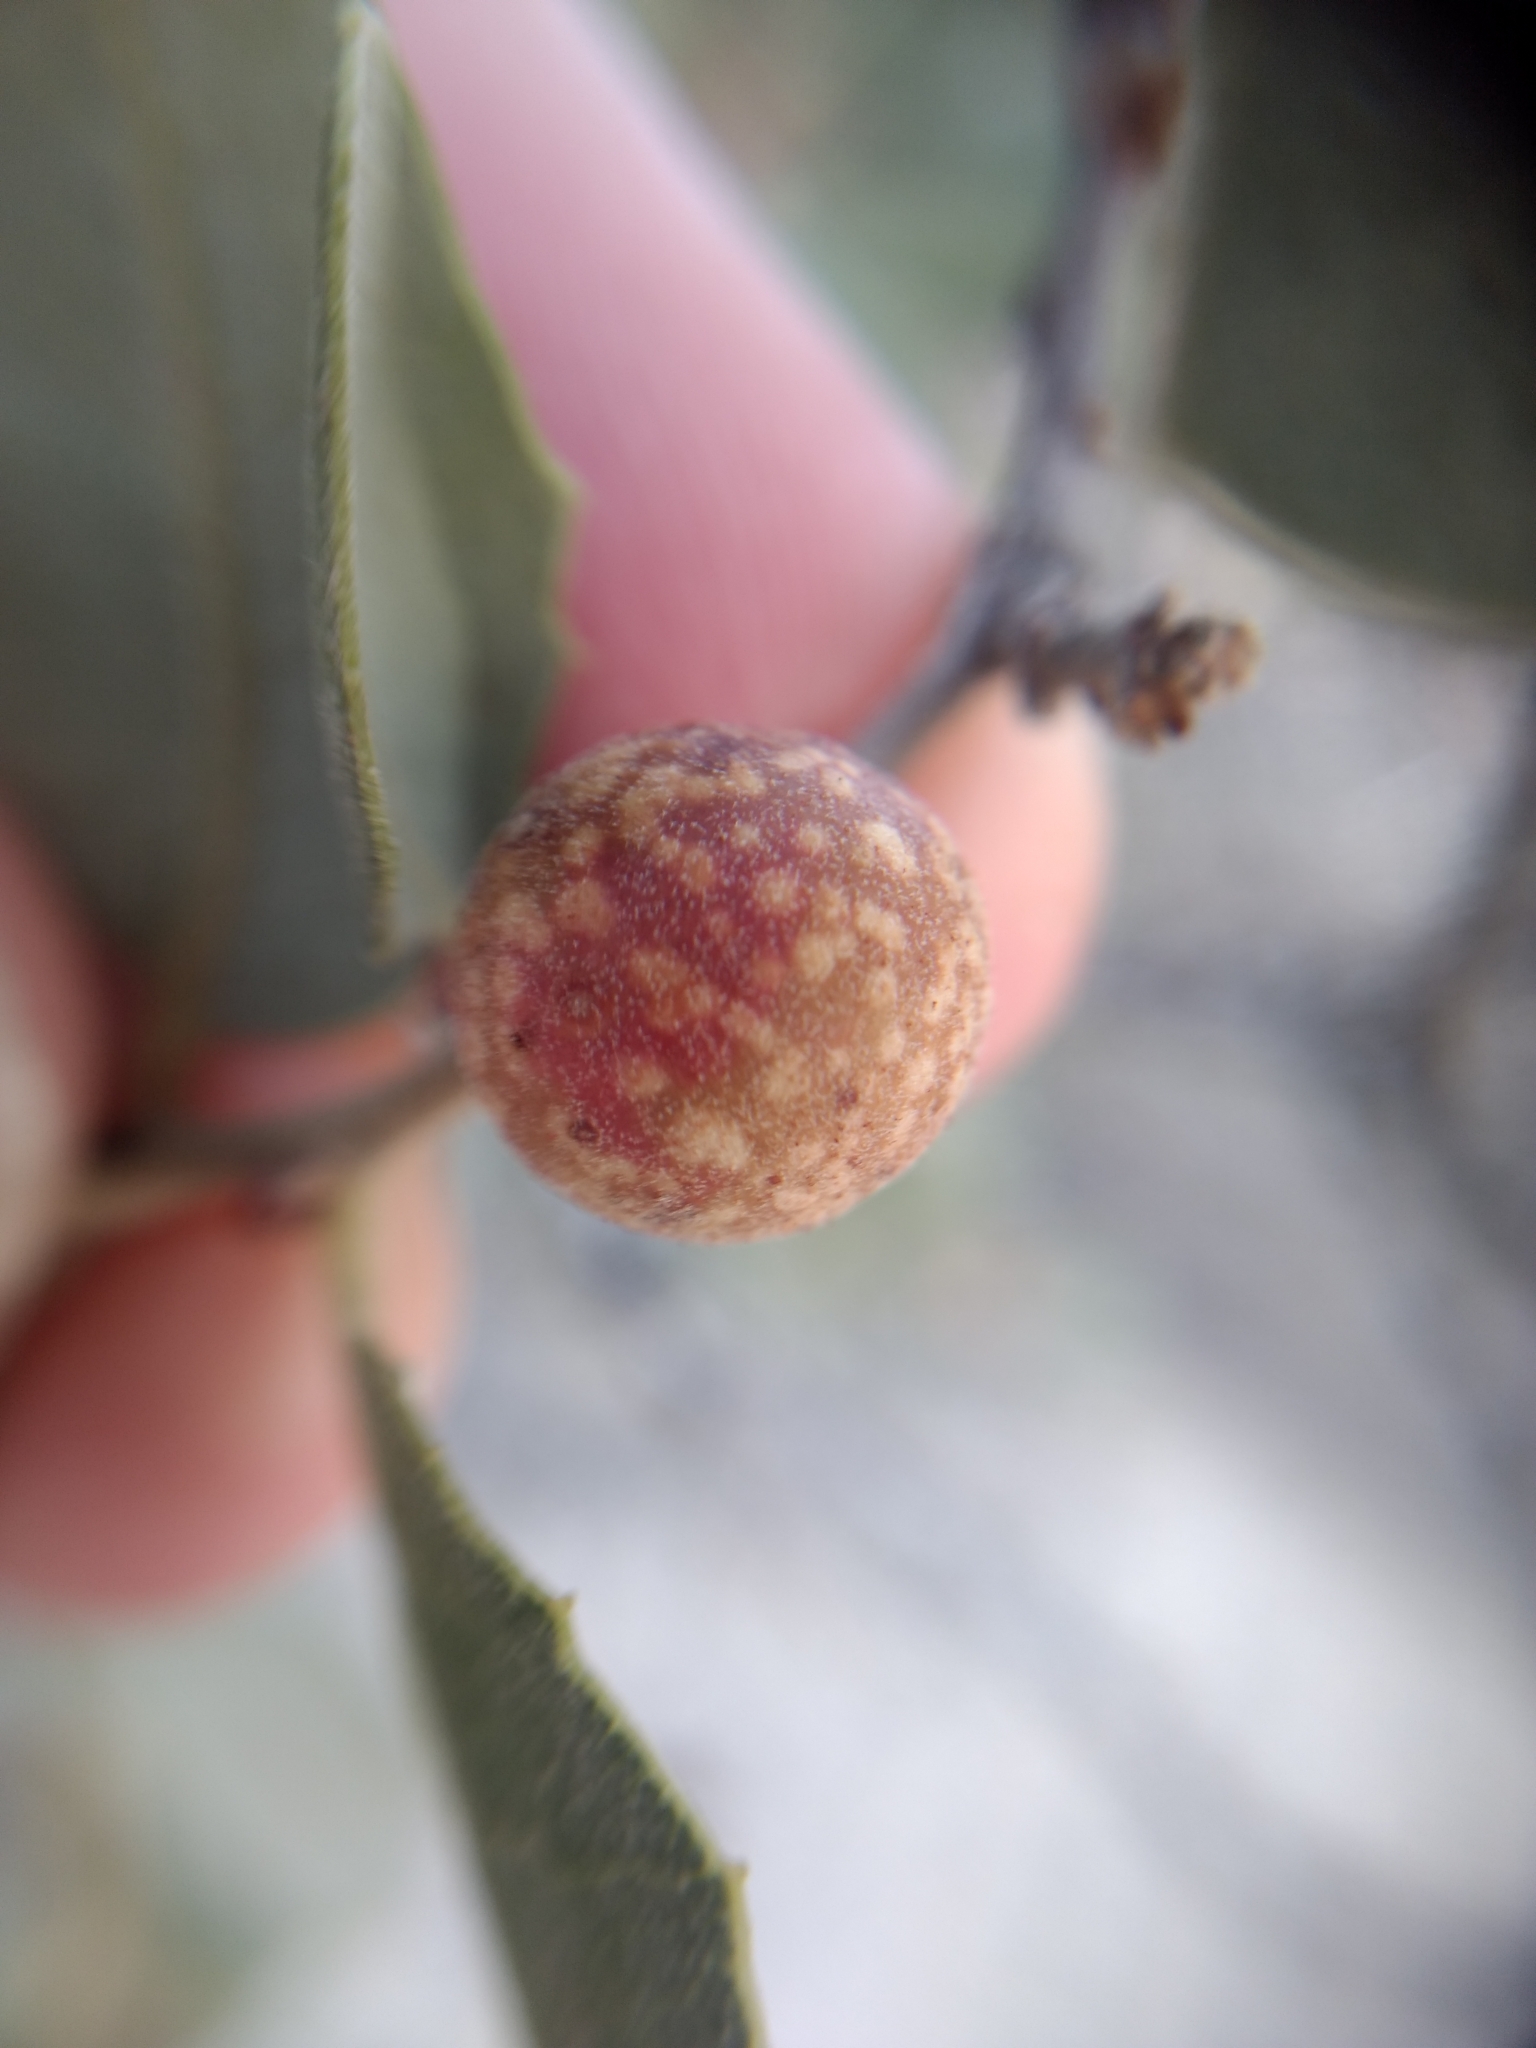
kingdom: Animalia
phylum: Arthropoda
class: Insecta
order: Hymenoptera
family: Cynipidae
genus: Burnettweldia
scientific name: Burnettweldia
